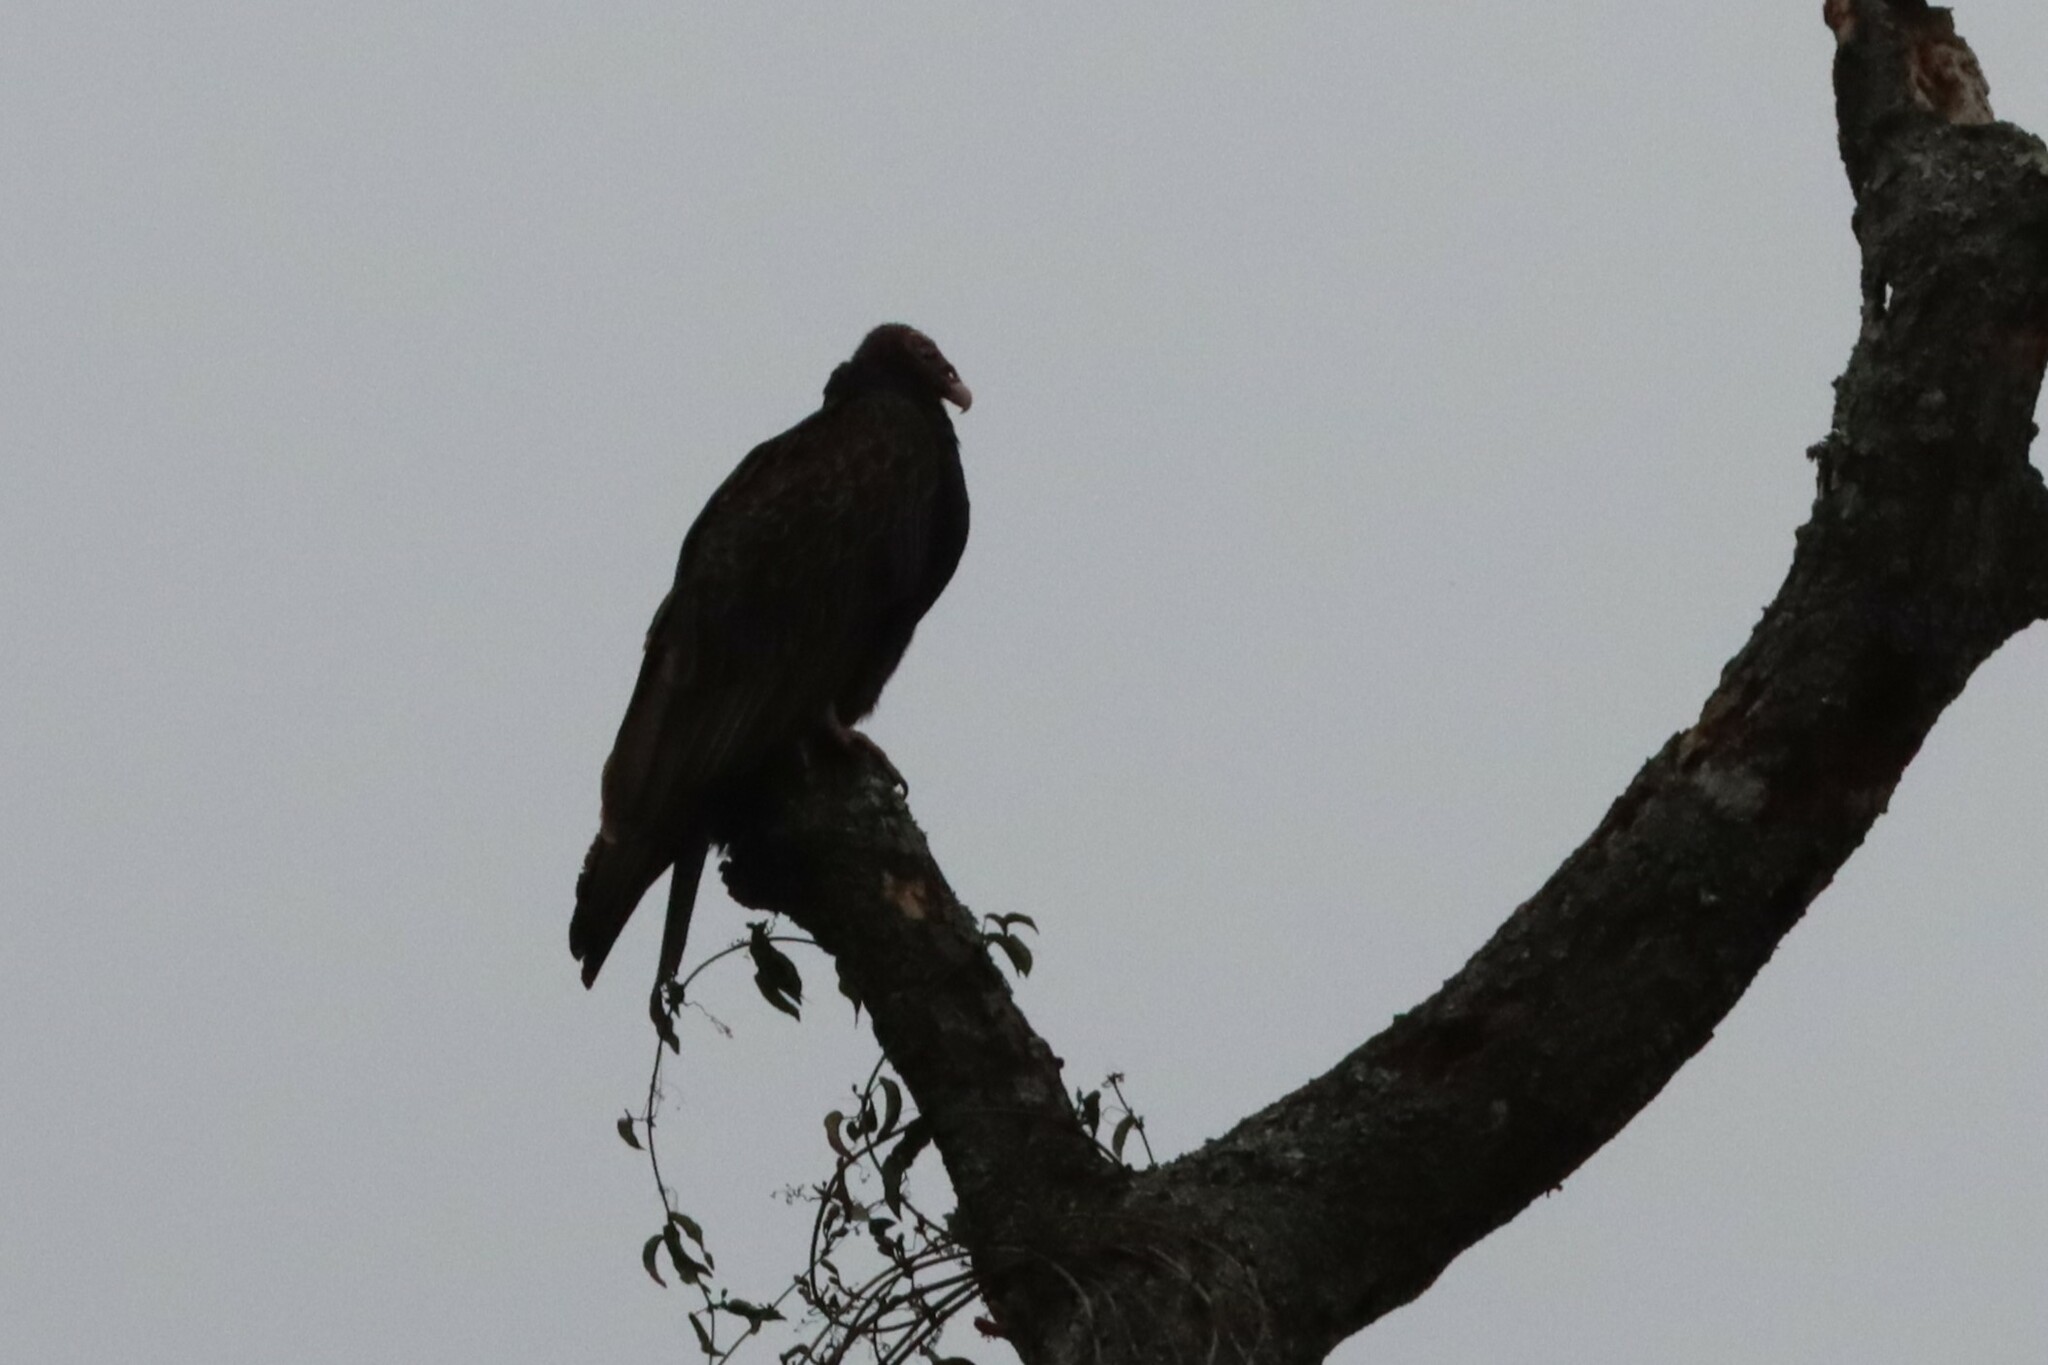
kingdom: Animalia
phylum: Chordata
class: Aves
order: Accipitriformes
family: Cathartidae
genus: Coragyps
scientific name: Coragyps atratus
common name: Black vulture
